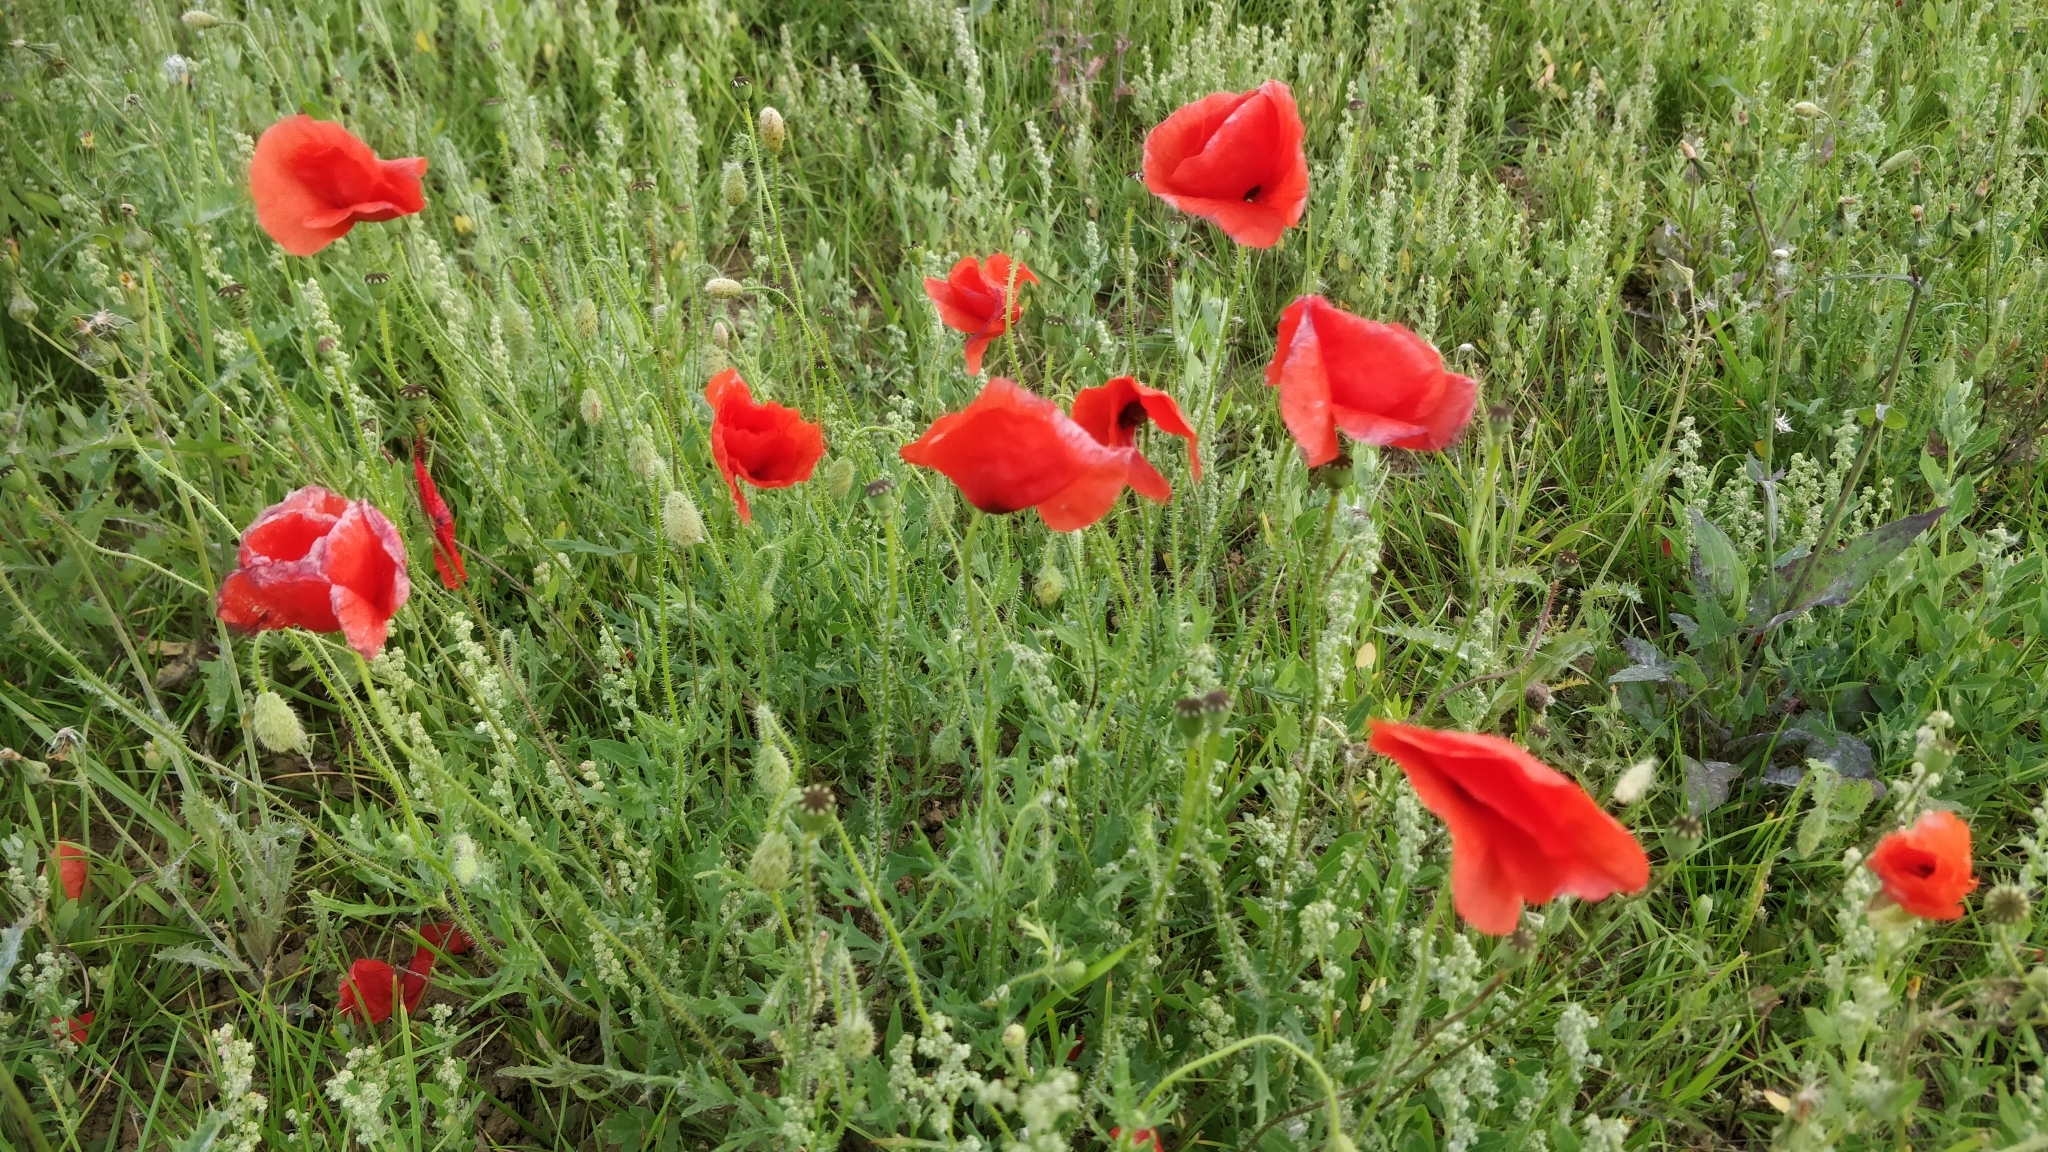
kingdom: Plantae
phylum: Tracheophyta
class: Magnoliopsida
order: Ranunculales
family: Papaveraceae
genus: Papaver
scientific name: Papaver rhoeas
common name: Corn poppy
